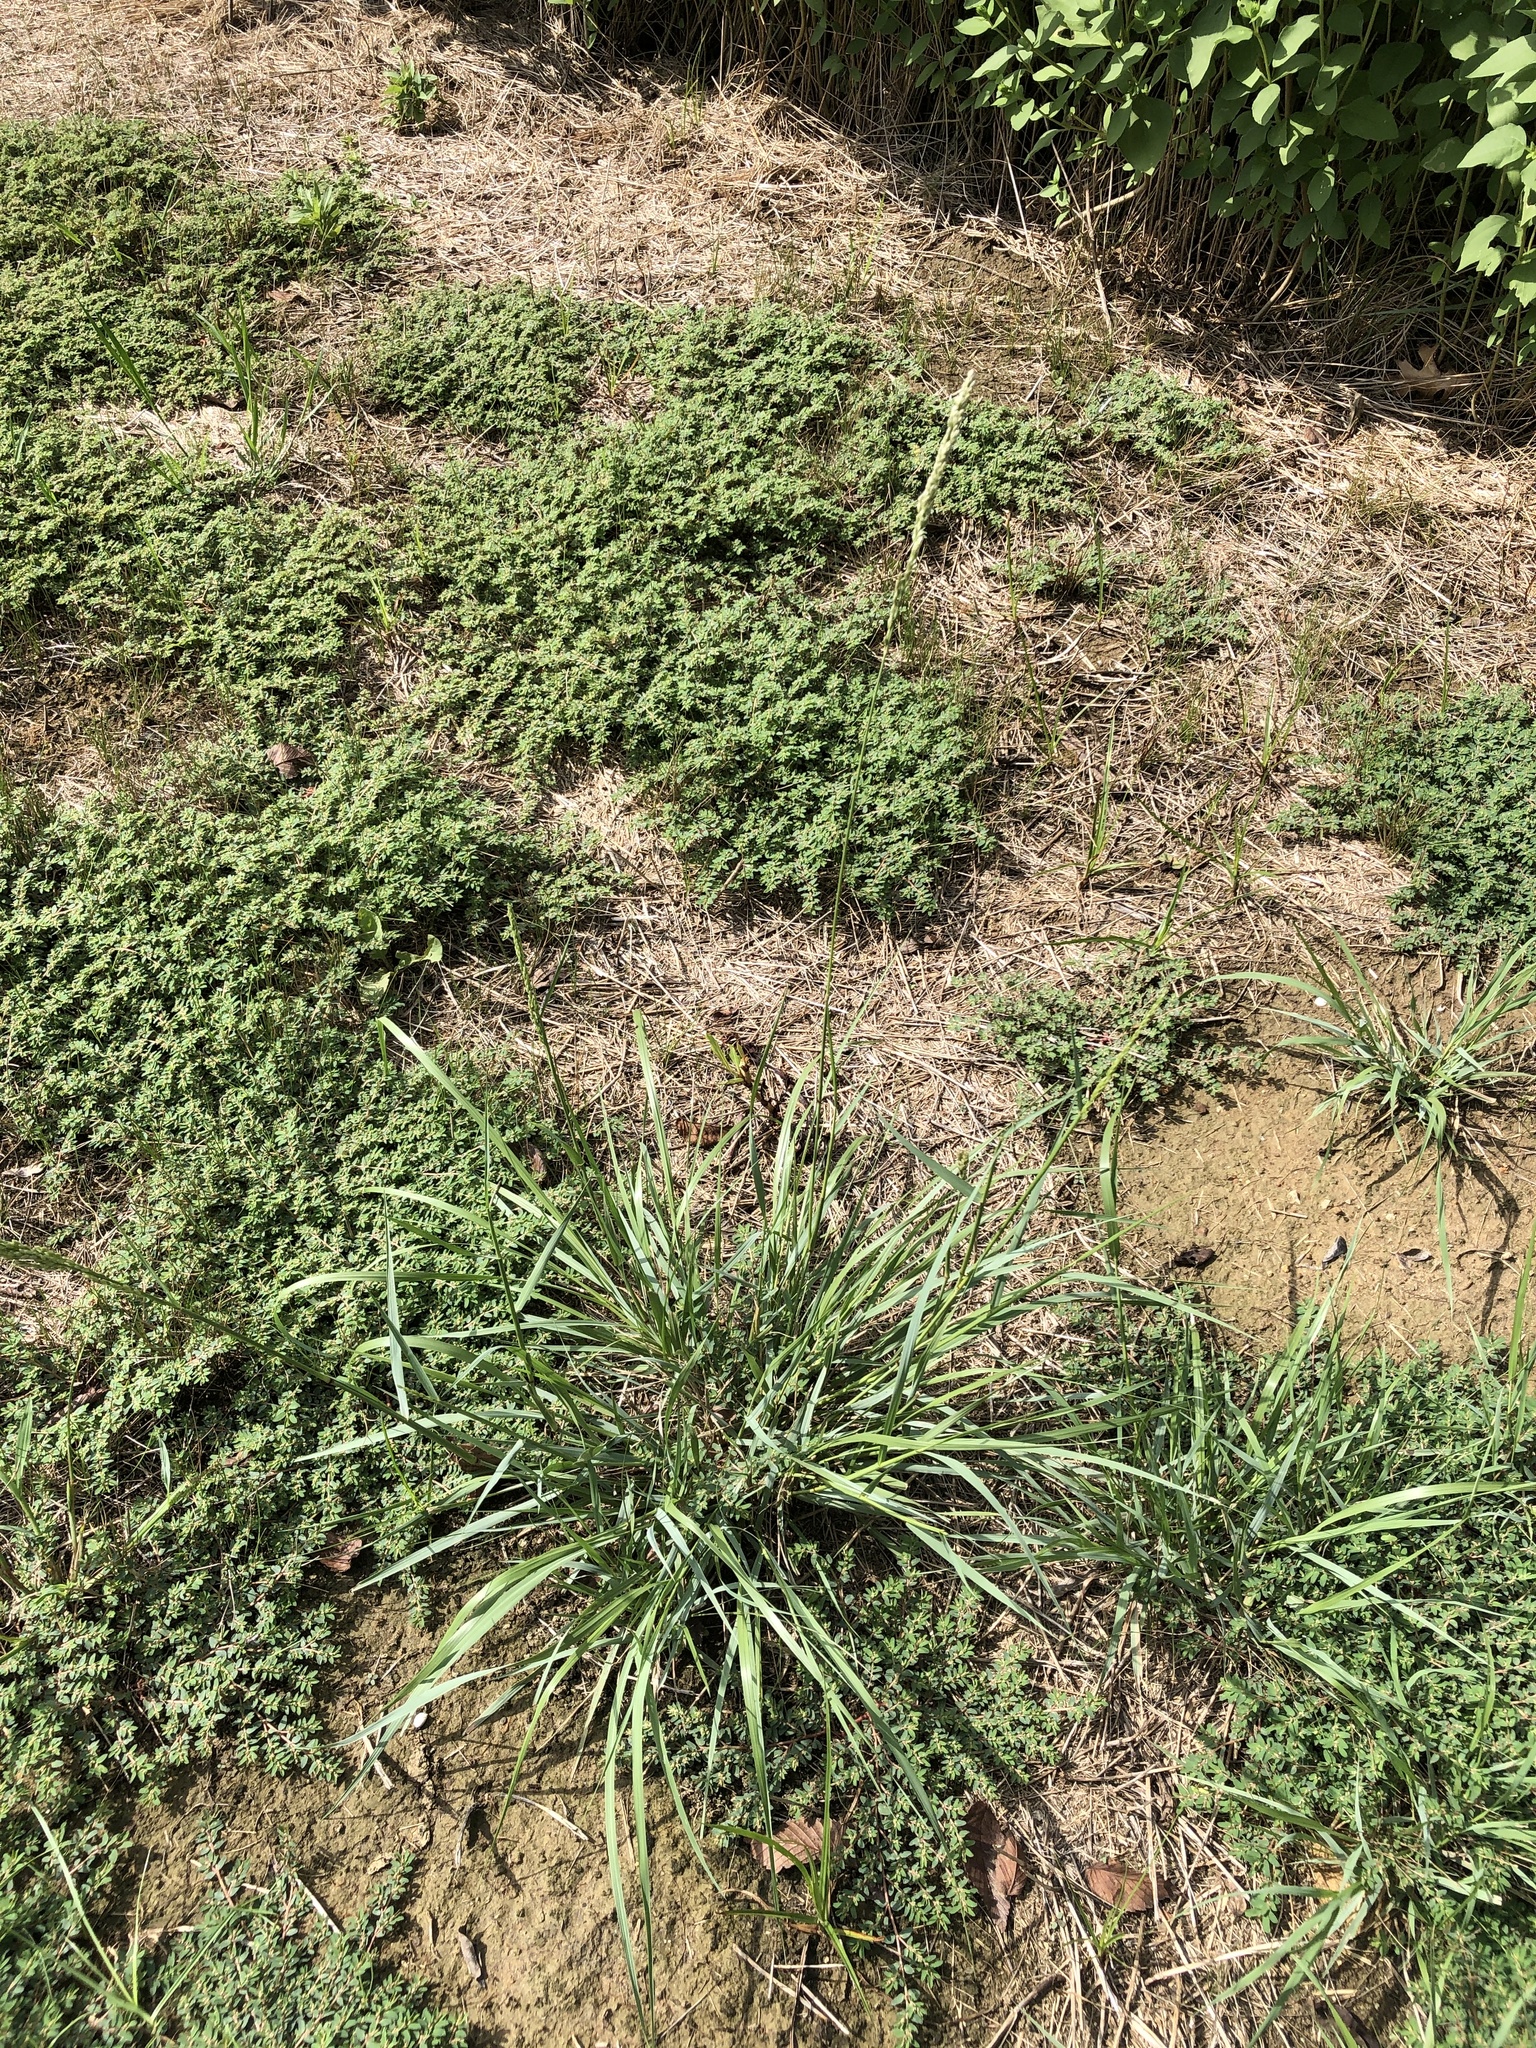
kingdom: Plantae
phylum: Tracheophyta
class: Liliopsida
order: Poales
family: Poaceae
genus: Tridens
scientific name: Tridens albescens
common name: White tridens
